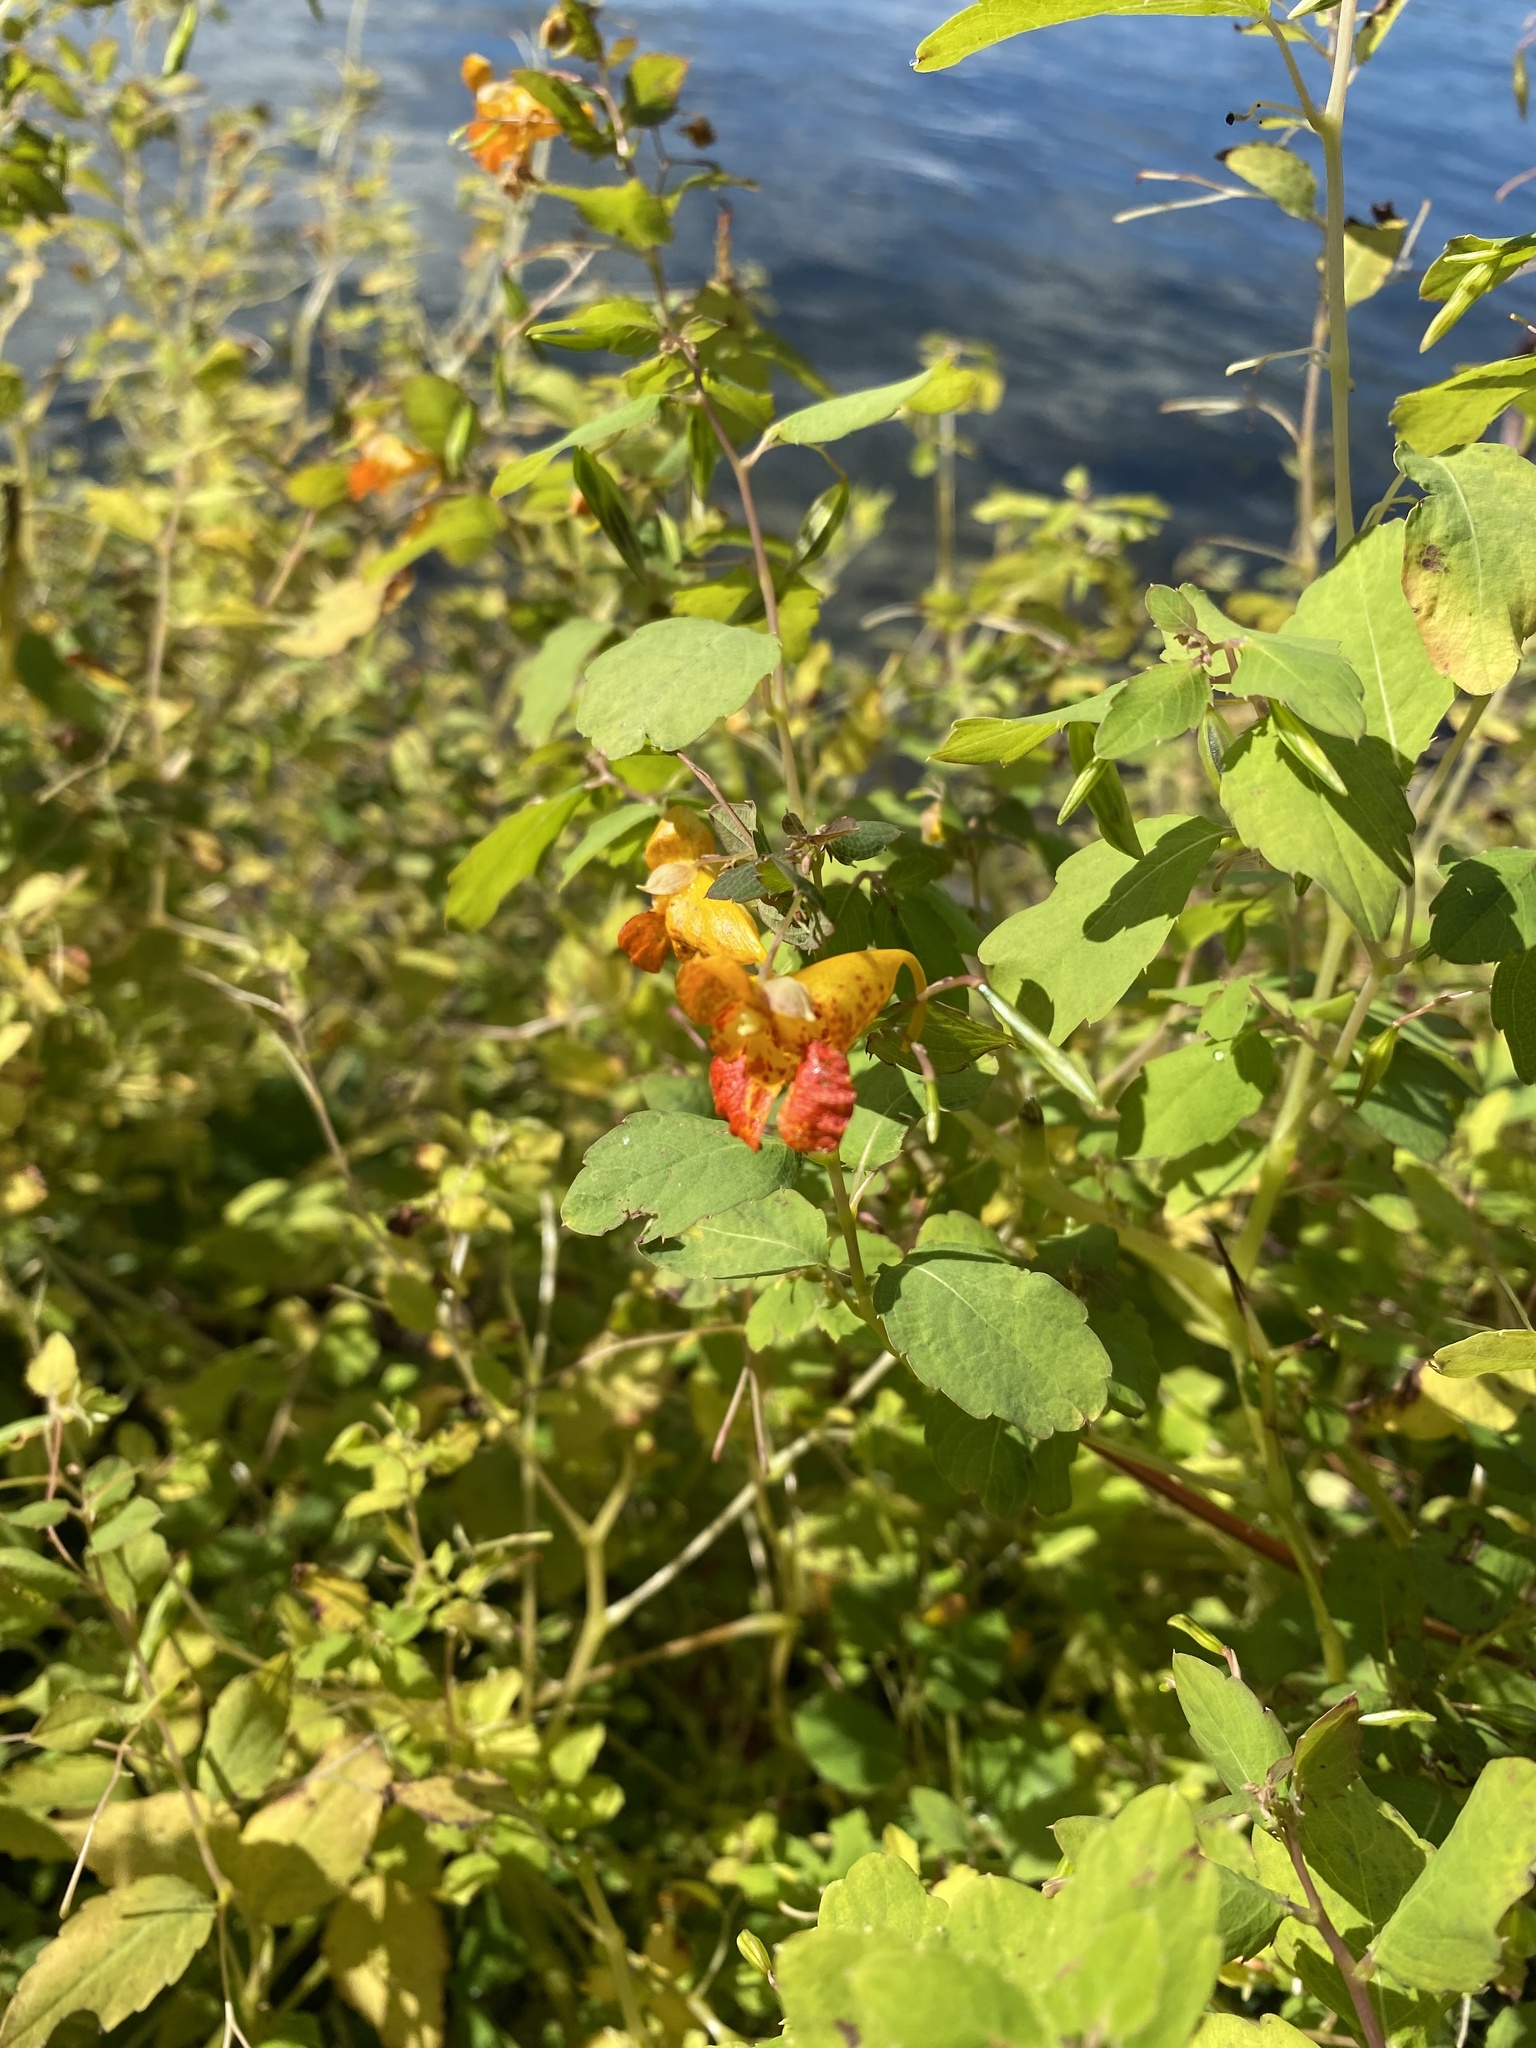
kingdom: Plantae
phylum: Tracheophyta
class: Magnoliopsida
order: Ericales
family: Balsaminaceae
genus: Impatiens
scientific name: Impatiens capensis
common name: Orange balsam
